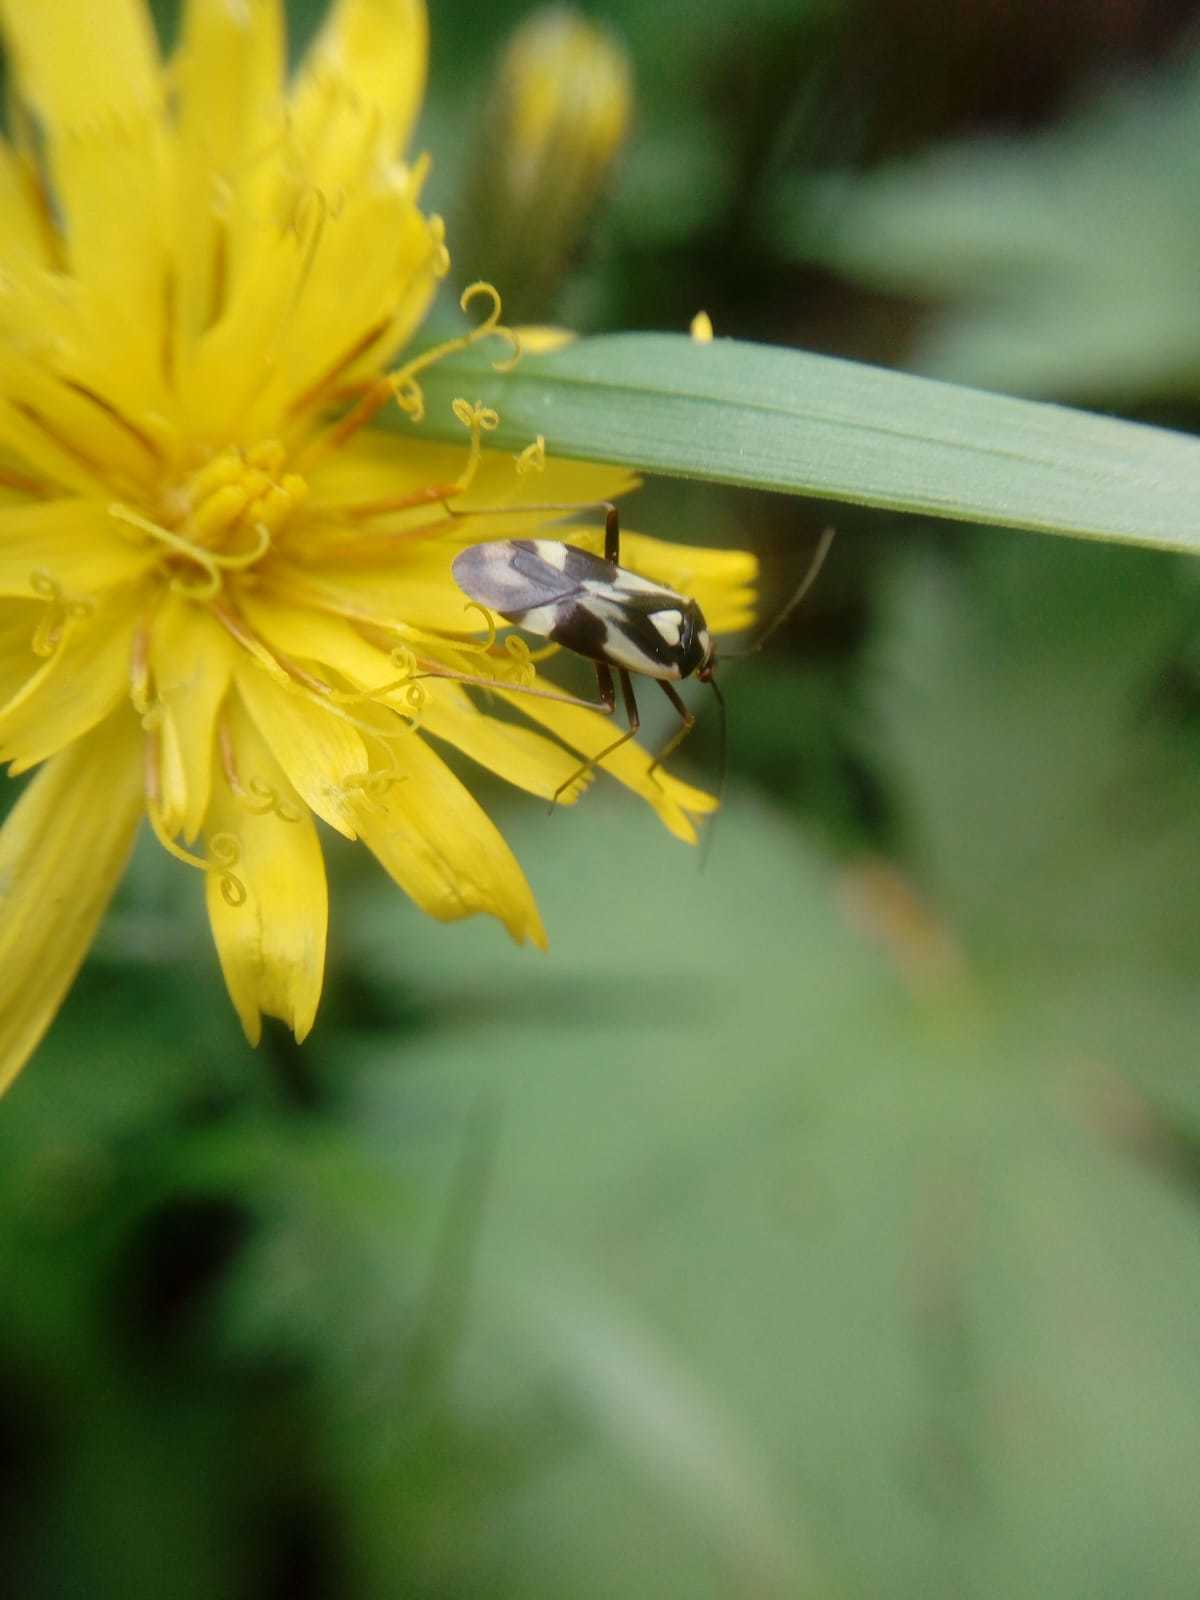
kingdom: Animalia
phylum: Arthropoda
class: Insecta
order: Hemiptera
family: Miridae
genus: Grypocoris
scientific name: Grypocoris sexguttatus
